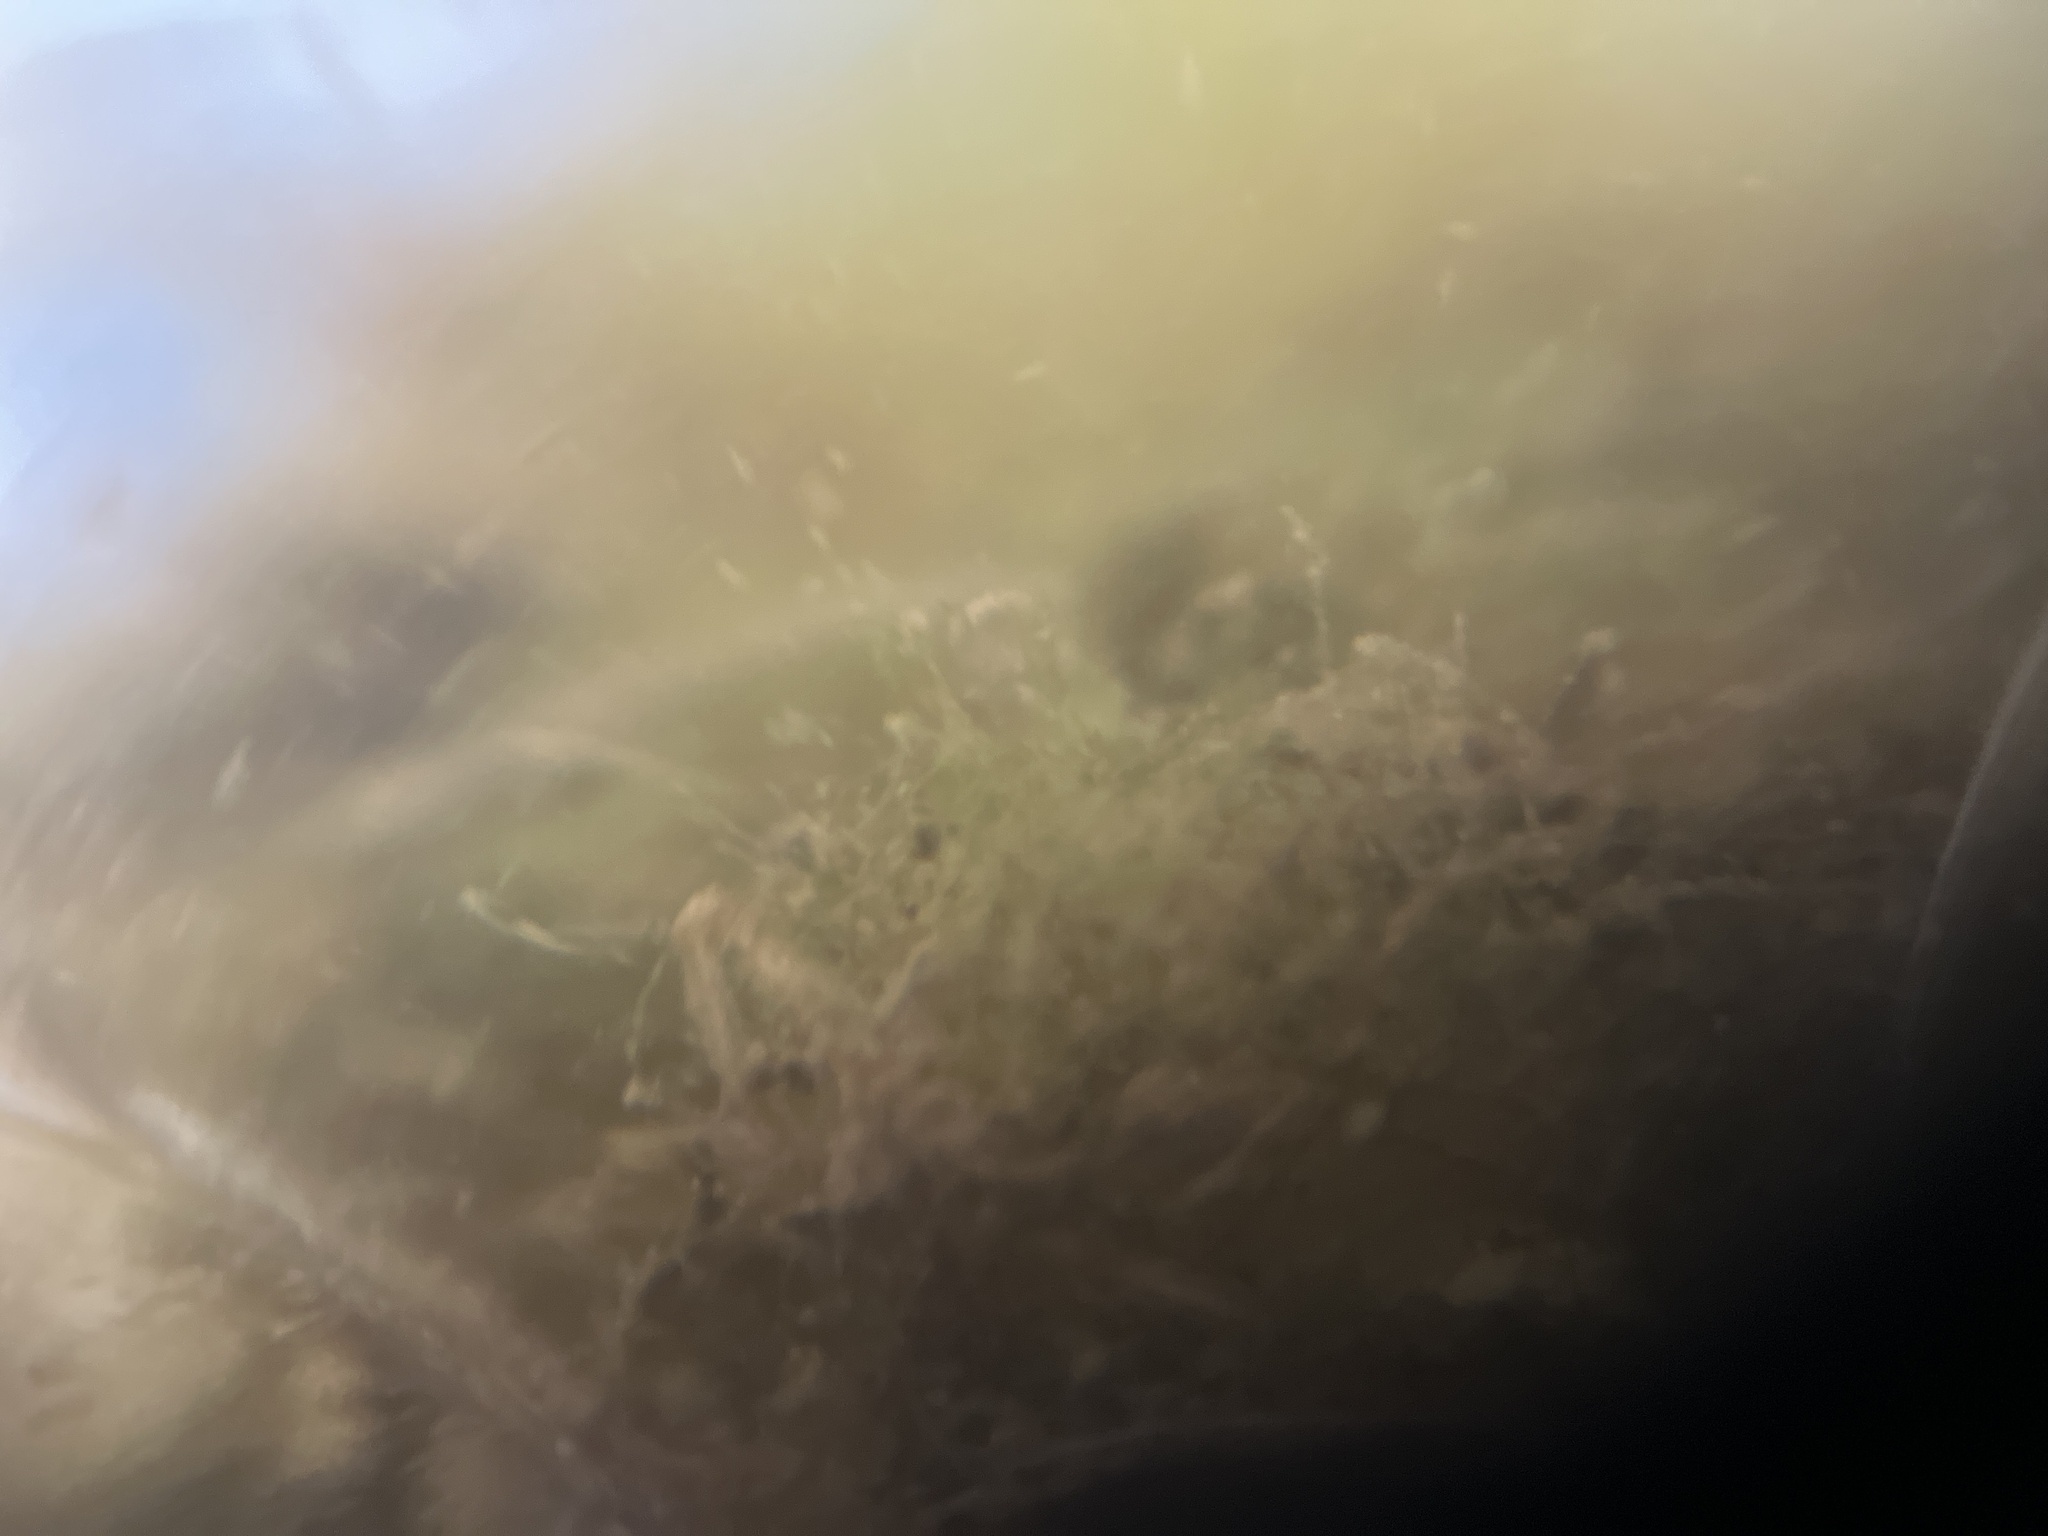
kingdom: Chromista
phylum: Ochrophyta
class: Bacillariophyceae
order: Melosirales
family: Melosiraceae
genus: Melosira
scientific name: Melosira varians
